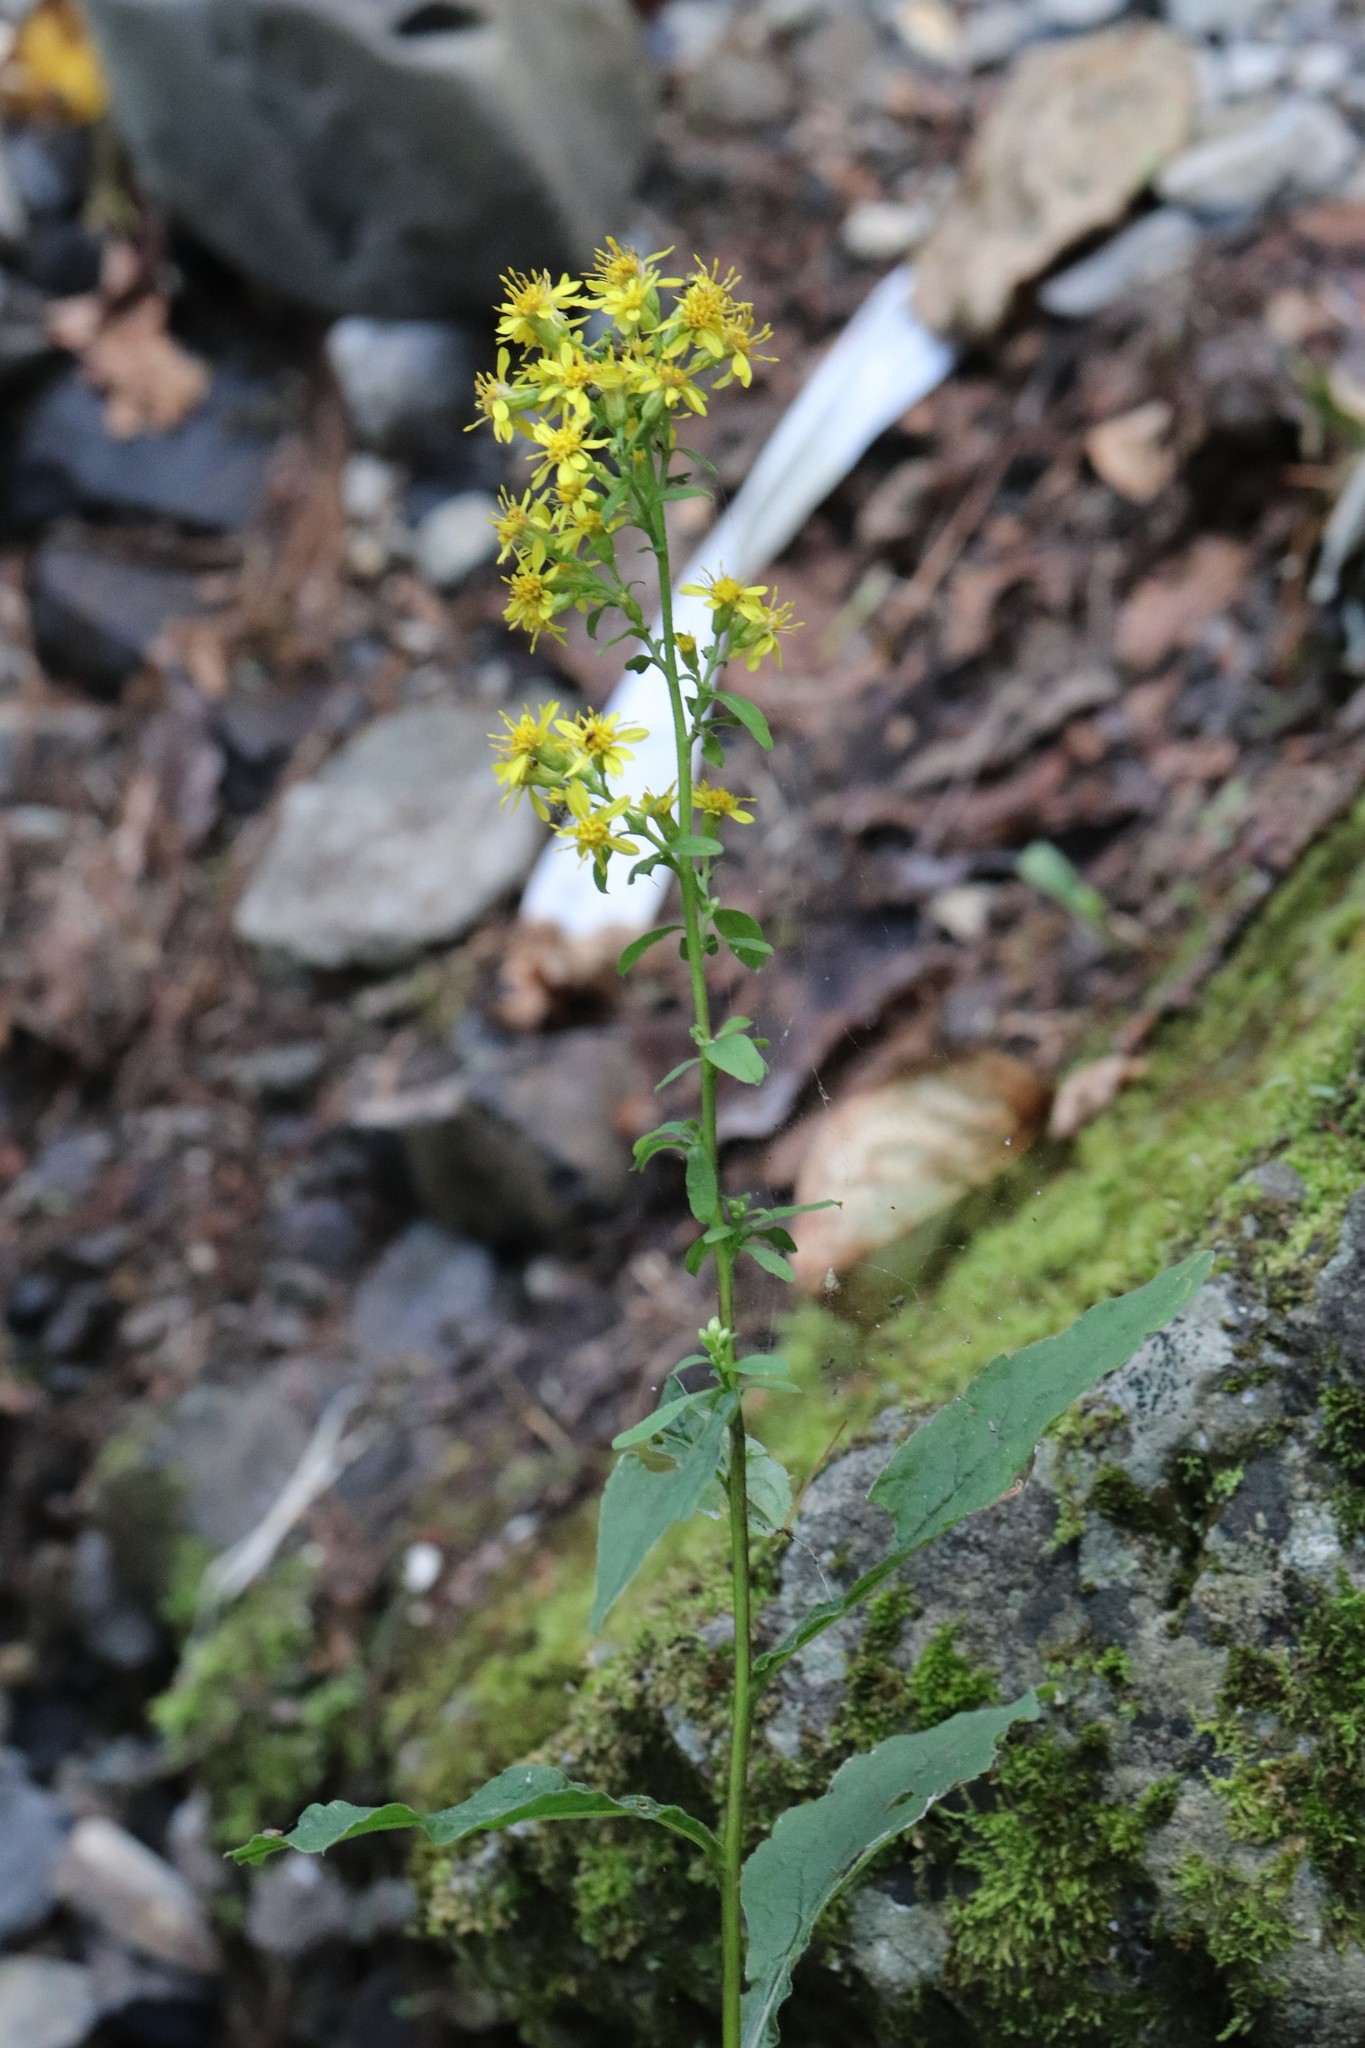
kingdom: Plantae
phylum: Tracheophyta
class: Magnoliopsida
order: Asterales
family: Asteraceae
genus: Solidago
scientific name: Solidago decurrens
